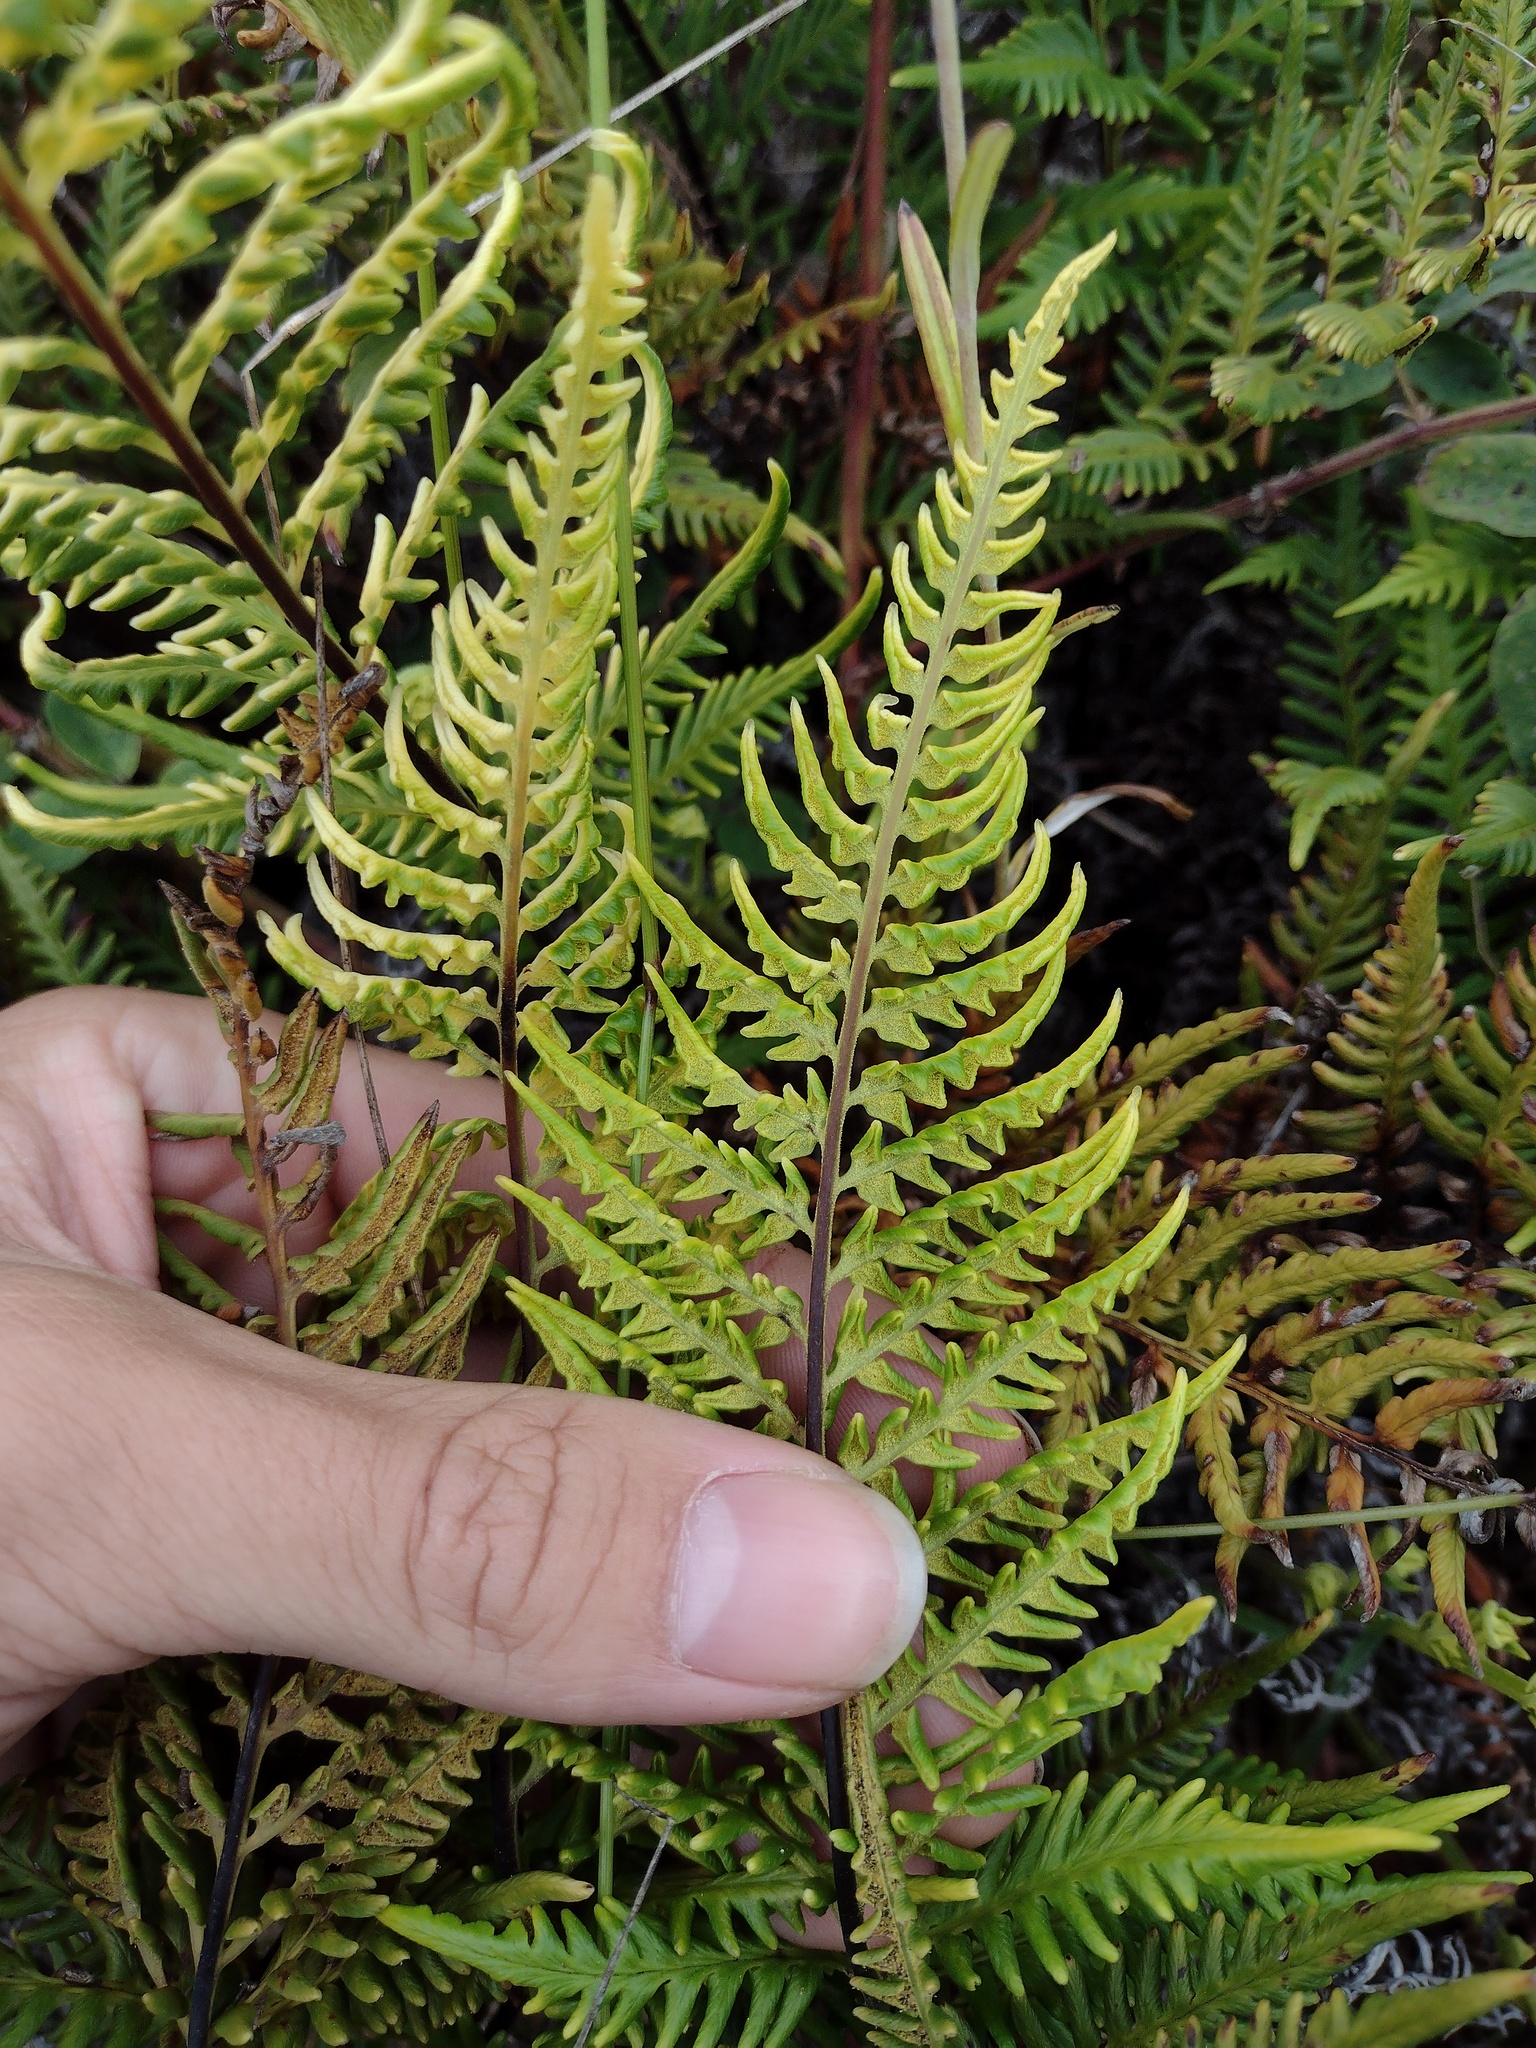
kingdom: Plantae
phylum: Tracheophyta
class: Polypodiopsida
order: Polypodiales
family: Pteridaceae
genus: Pityrogramma
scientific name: Pityrogramma austroamericana
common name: Leatherleaf goldback fern
